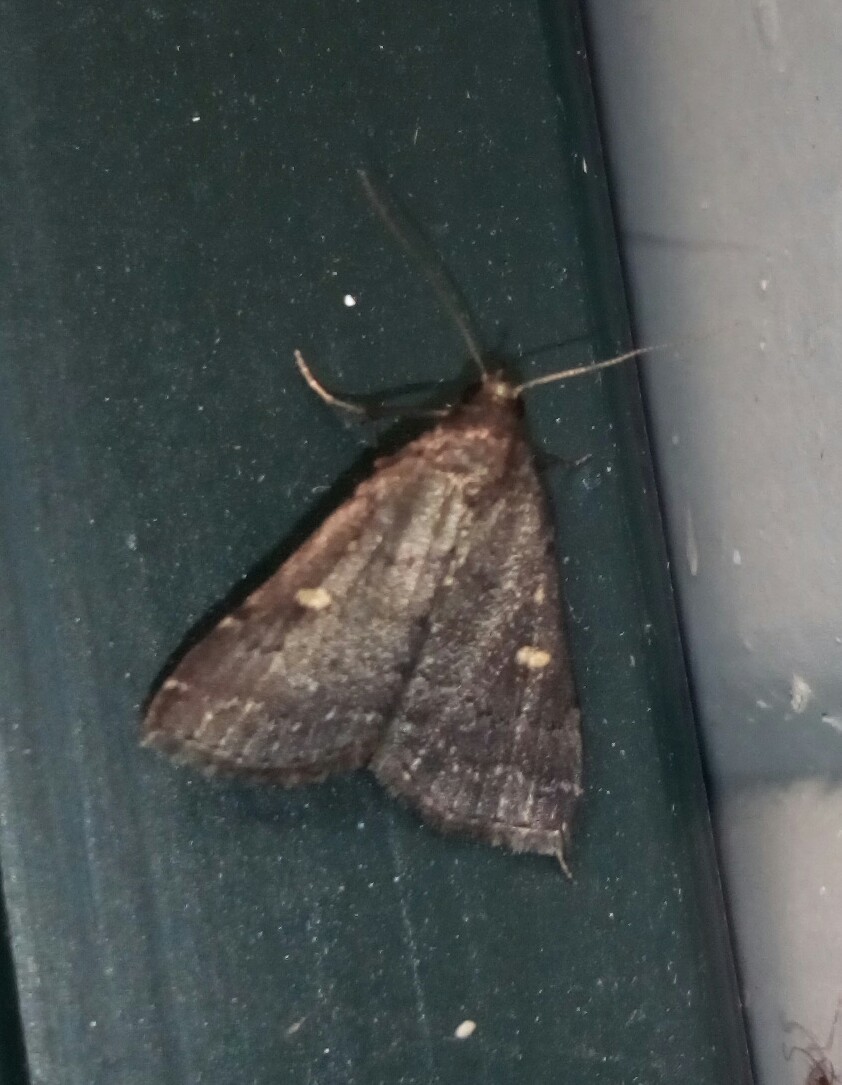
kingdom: Animalia
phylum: Arthropoda
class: Insecta
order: Lepidoptera
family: Erebidae
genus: Tetanolita
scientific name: Tetanolita mynesalis
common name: Smoky tetanolita moth
